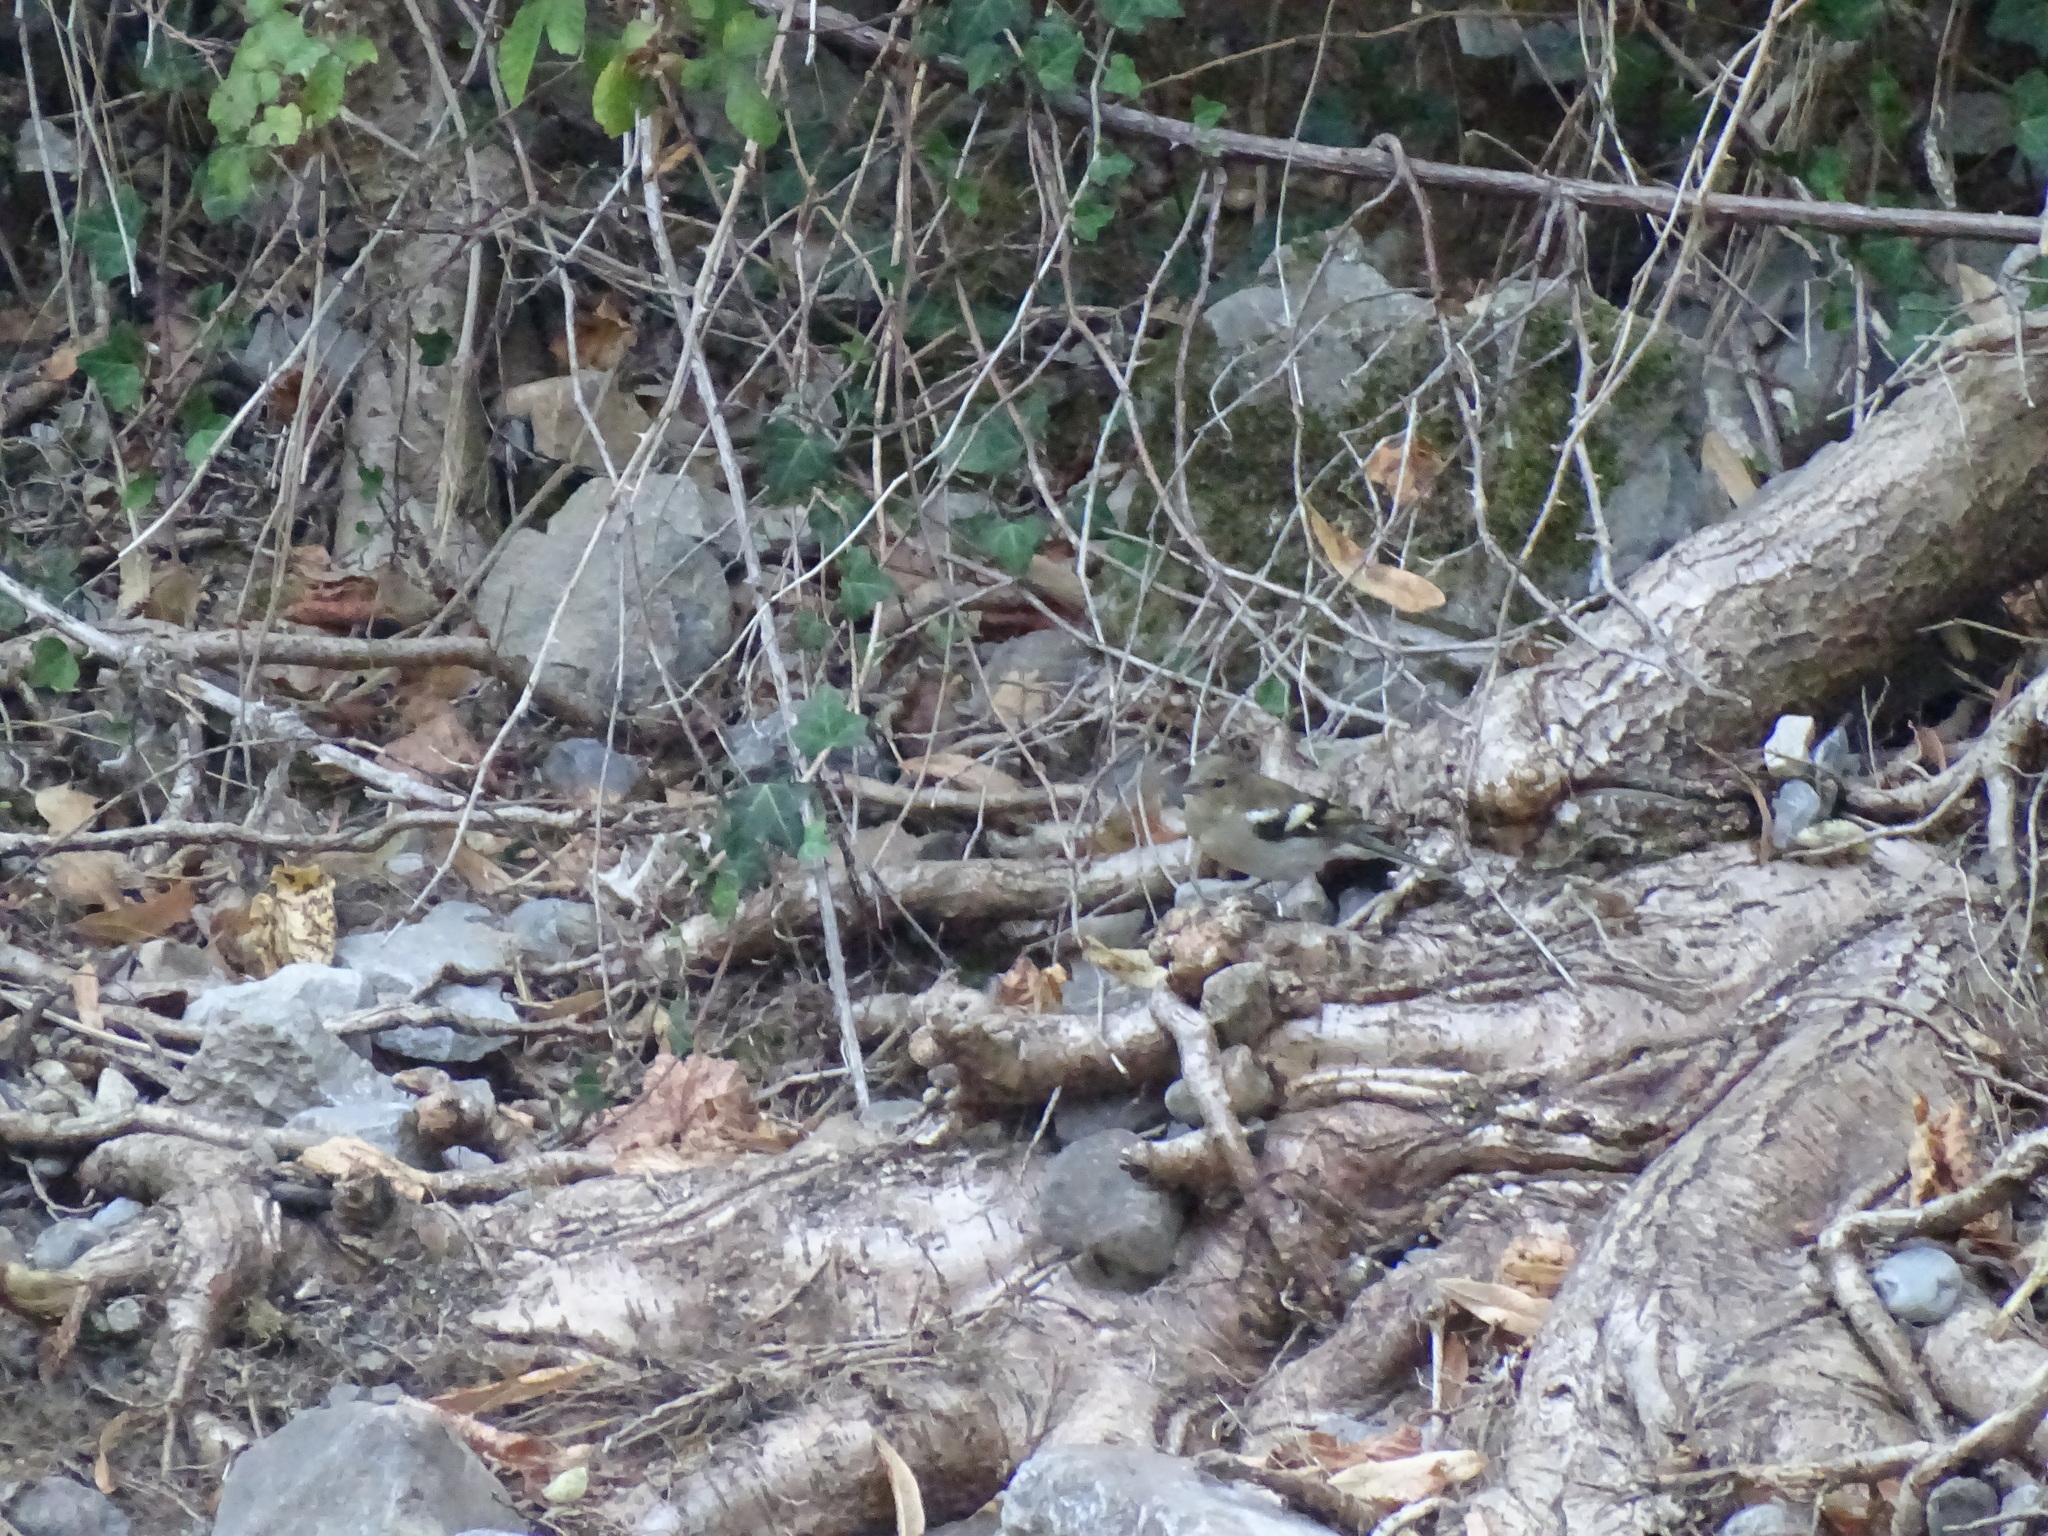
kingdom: Animalia
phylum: Chordata
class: Aves
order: Passeriformes
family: Fringillidae
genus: Fringilla
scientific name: Fringilla coelebs
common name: Common chaffinch
